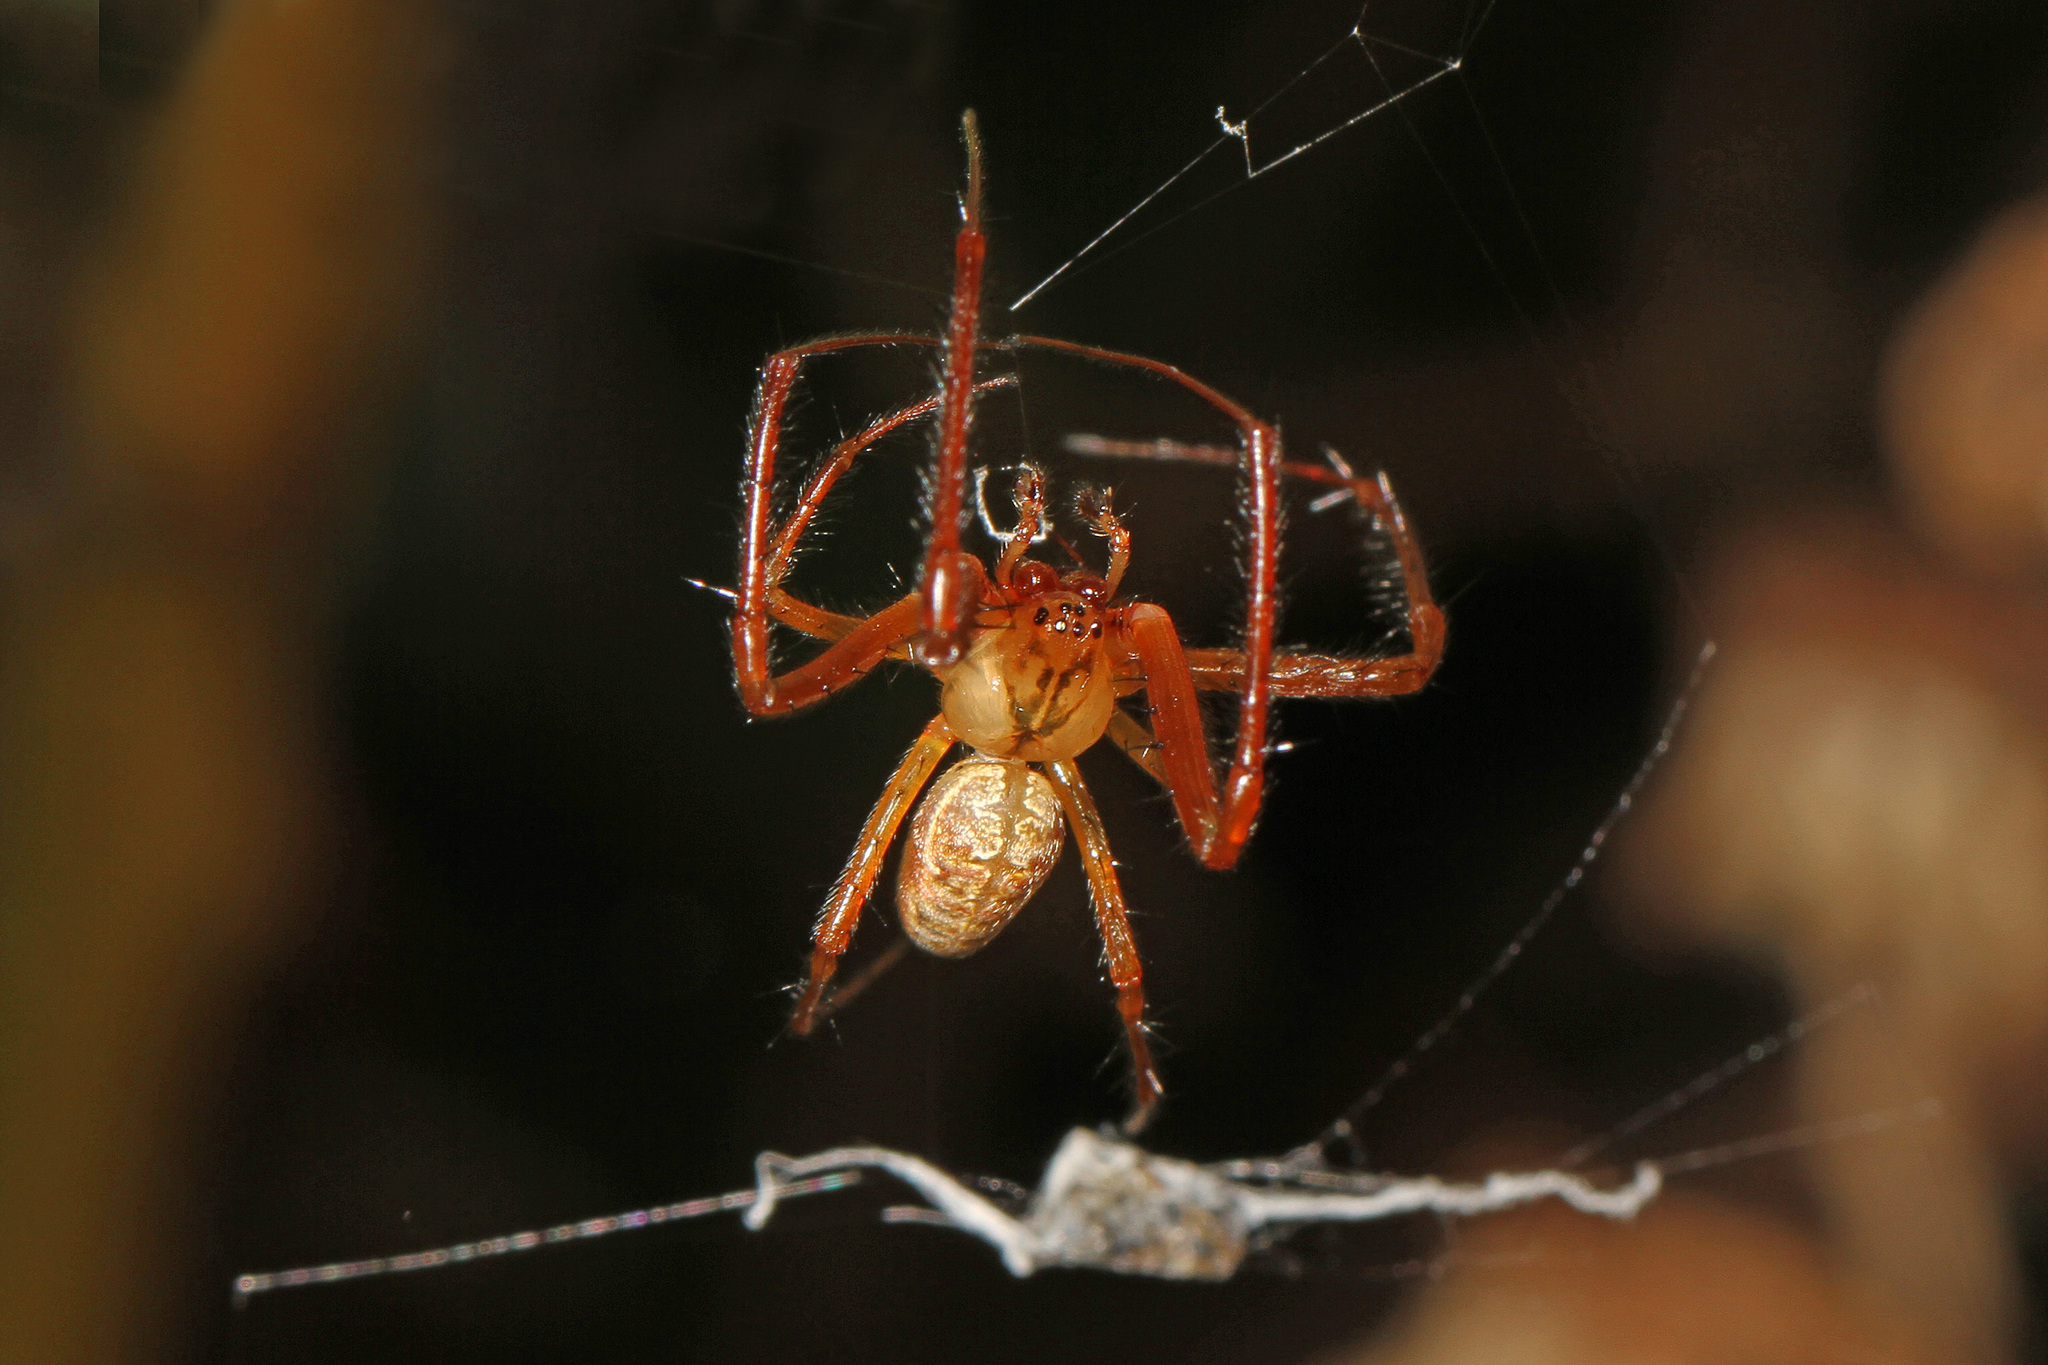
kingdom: Animalia
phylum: Arthropoda
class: Arachnida
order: Araneae
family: Tetragnathidae
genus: Metellina
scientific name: Metellina segmentata
